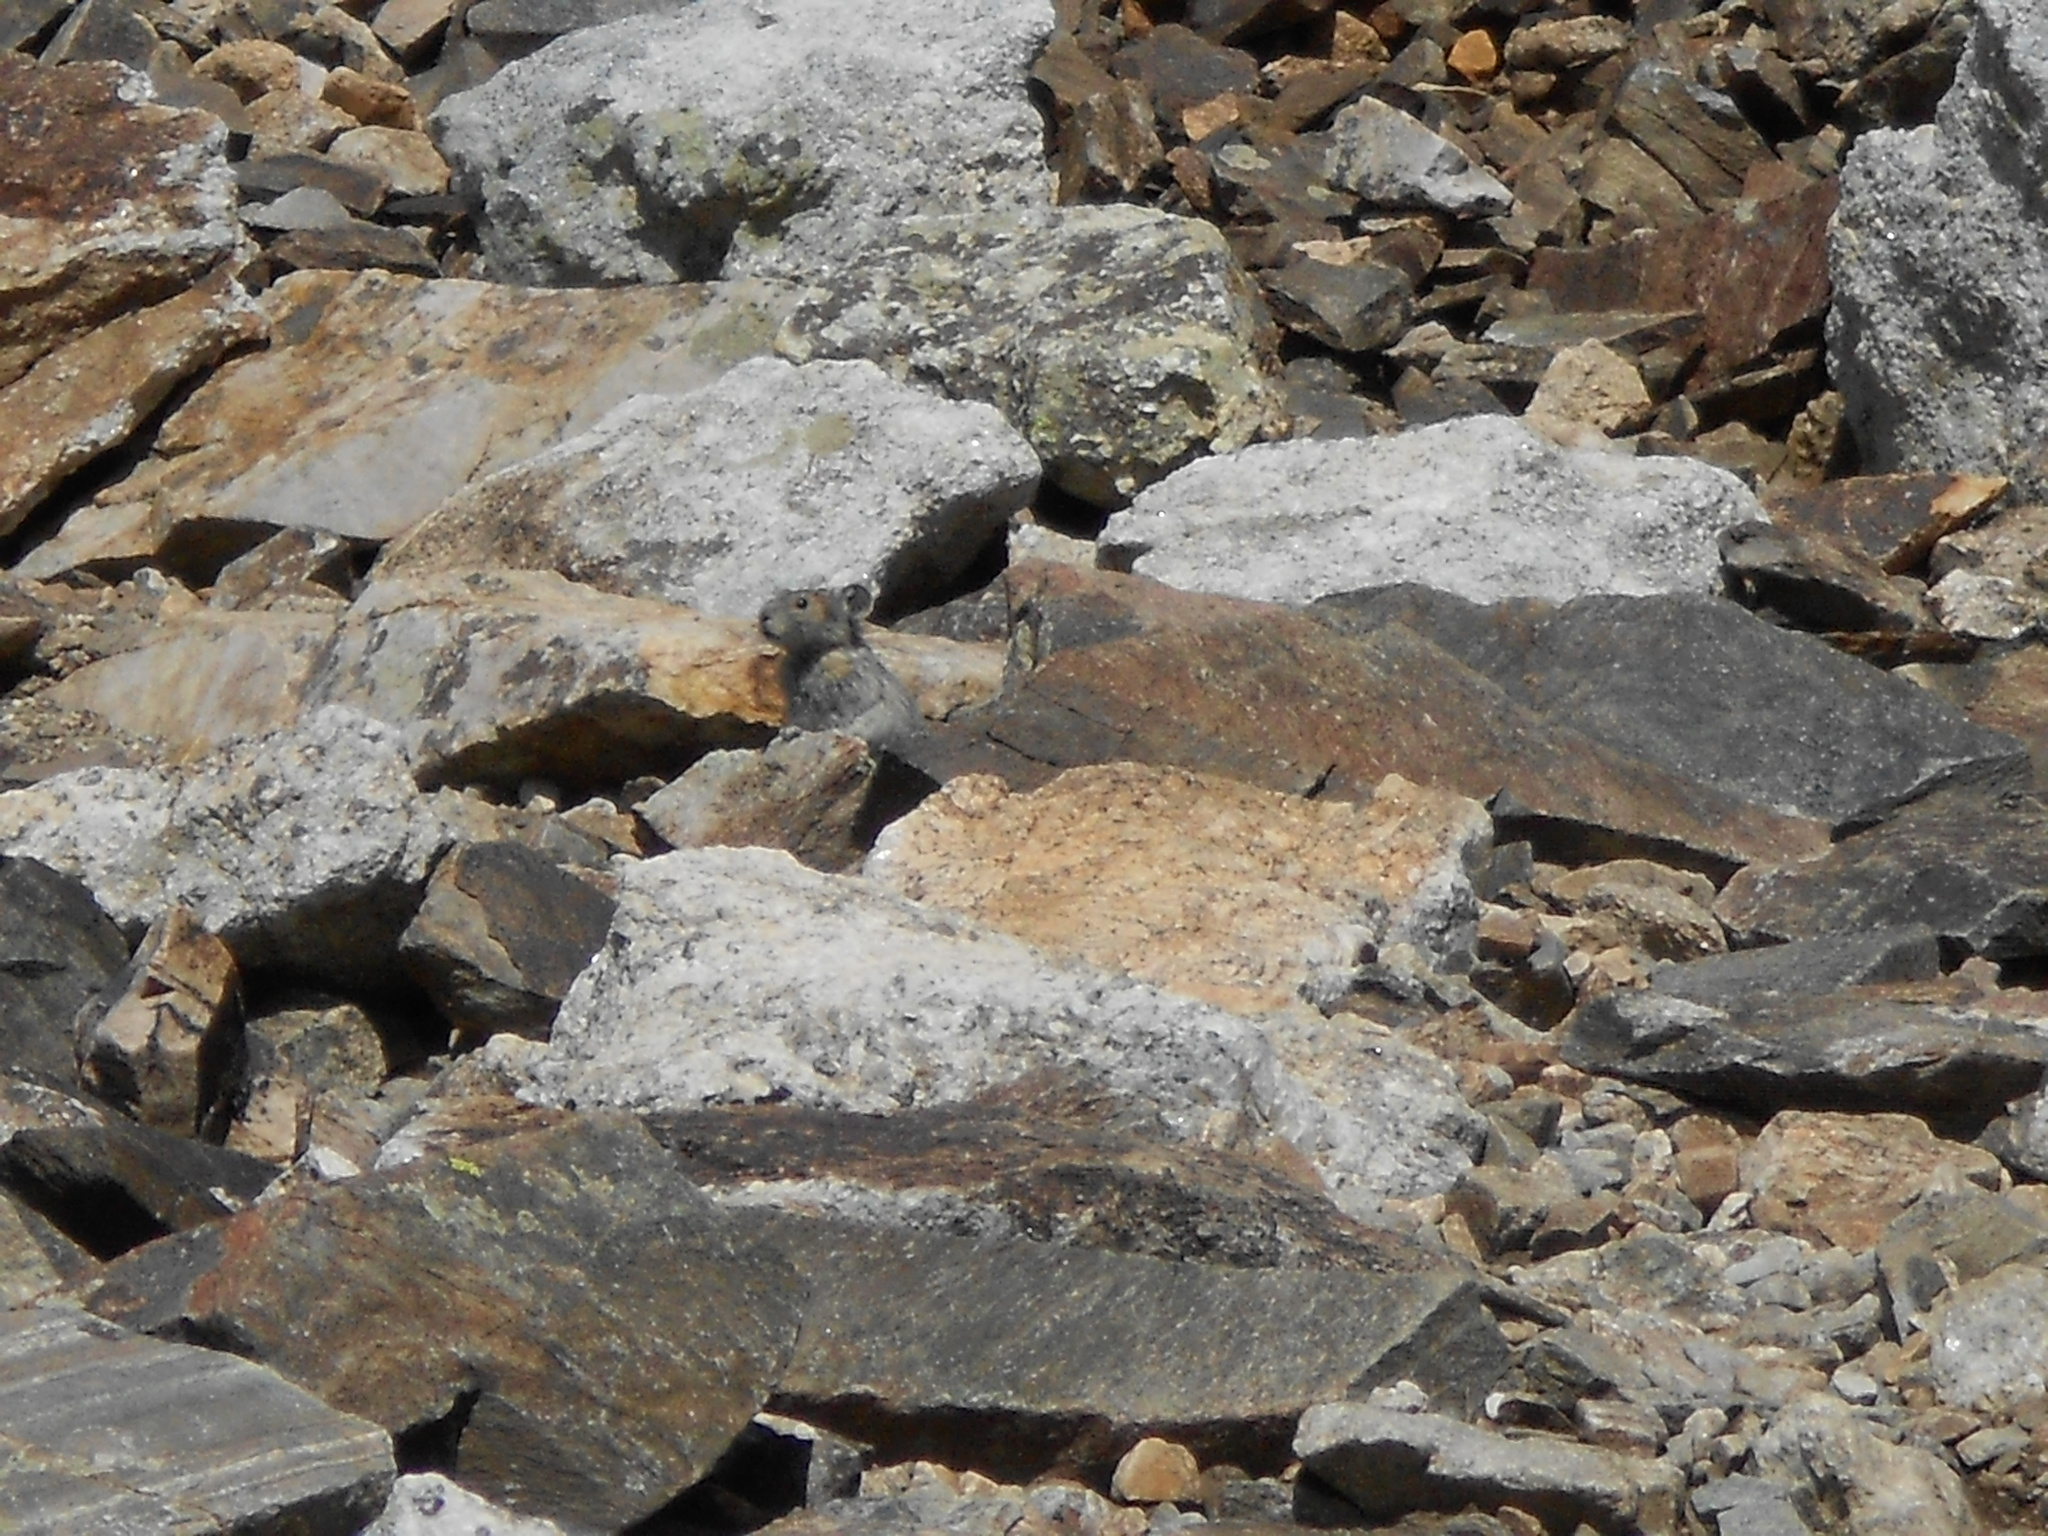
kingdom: Animalia
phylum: Chordata
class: Mammalia
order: Lagomorpha
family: Ochotonidae
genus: Ochotona
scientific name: Ochotona princeps
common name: American pika
